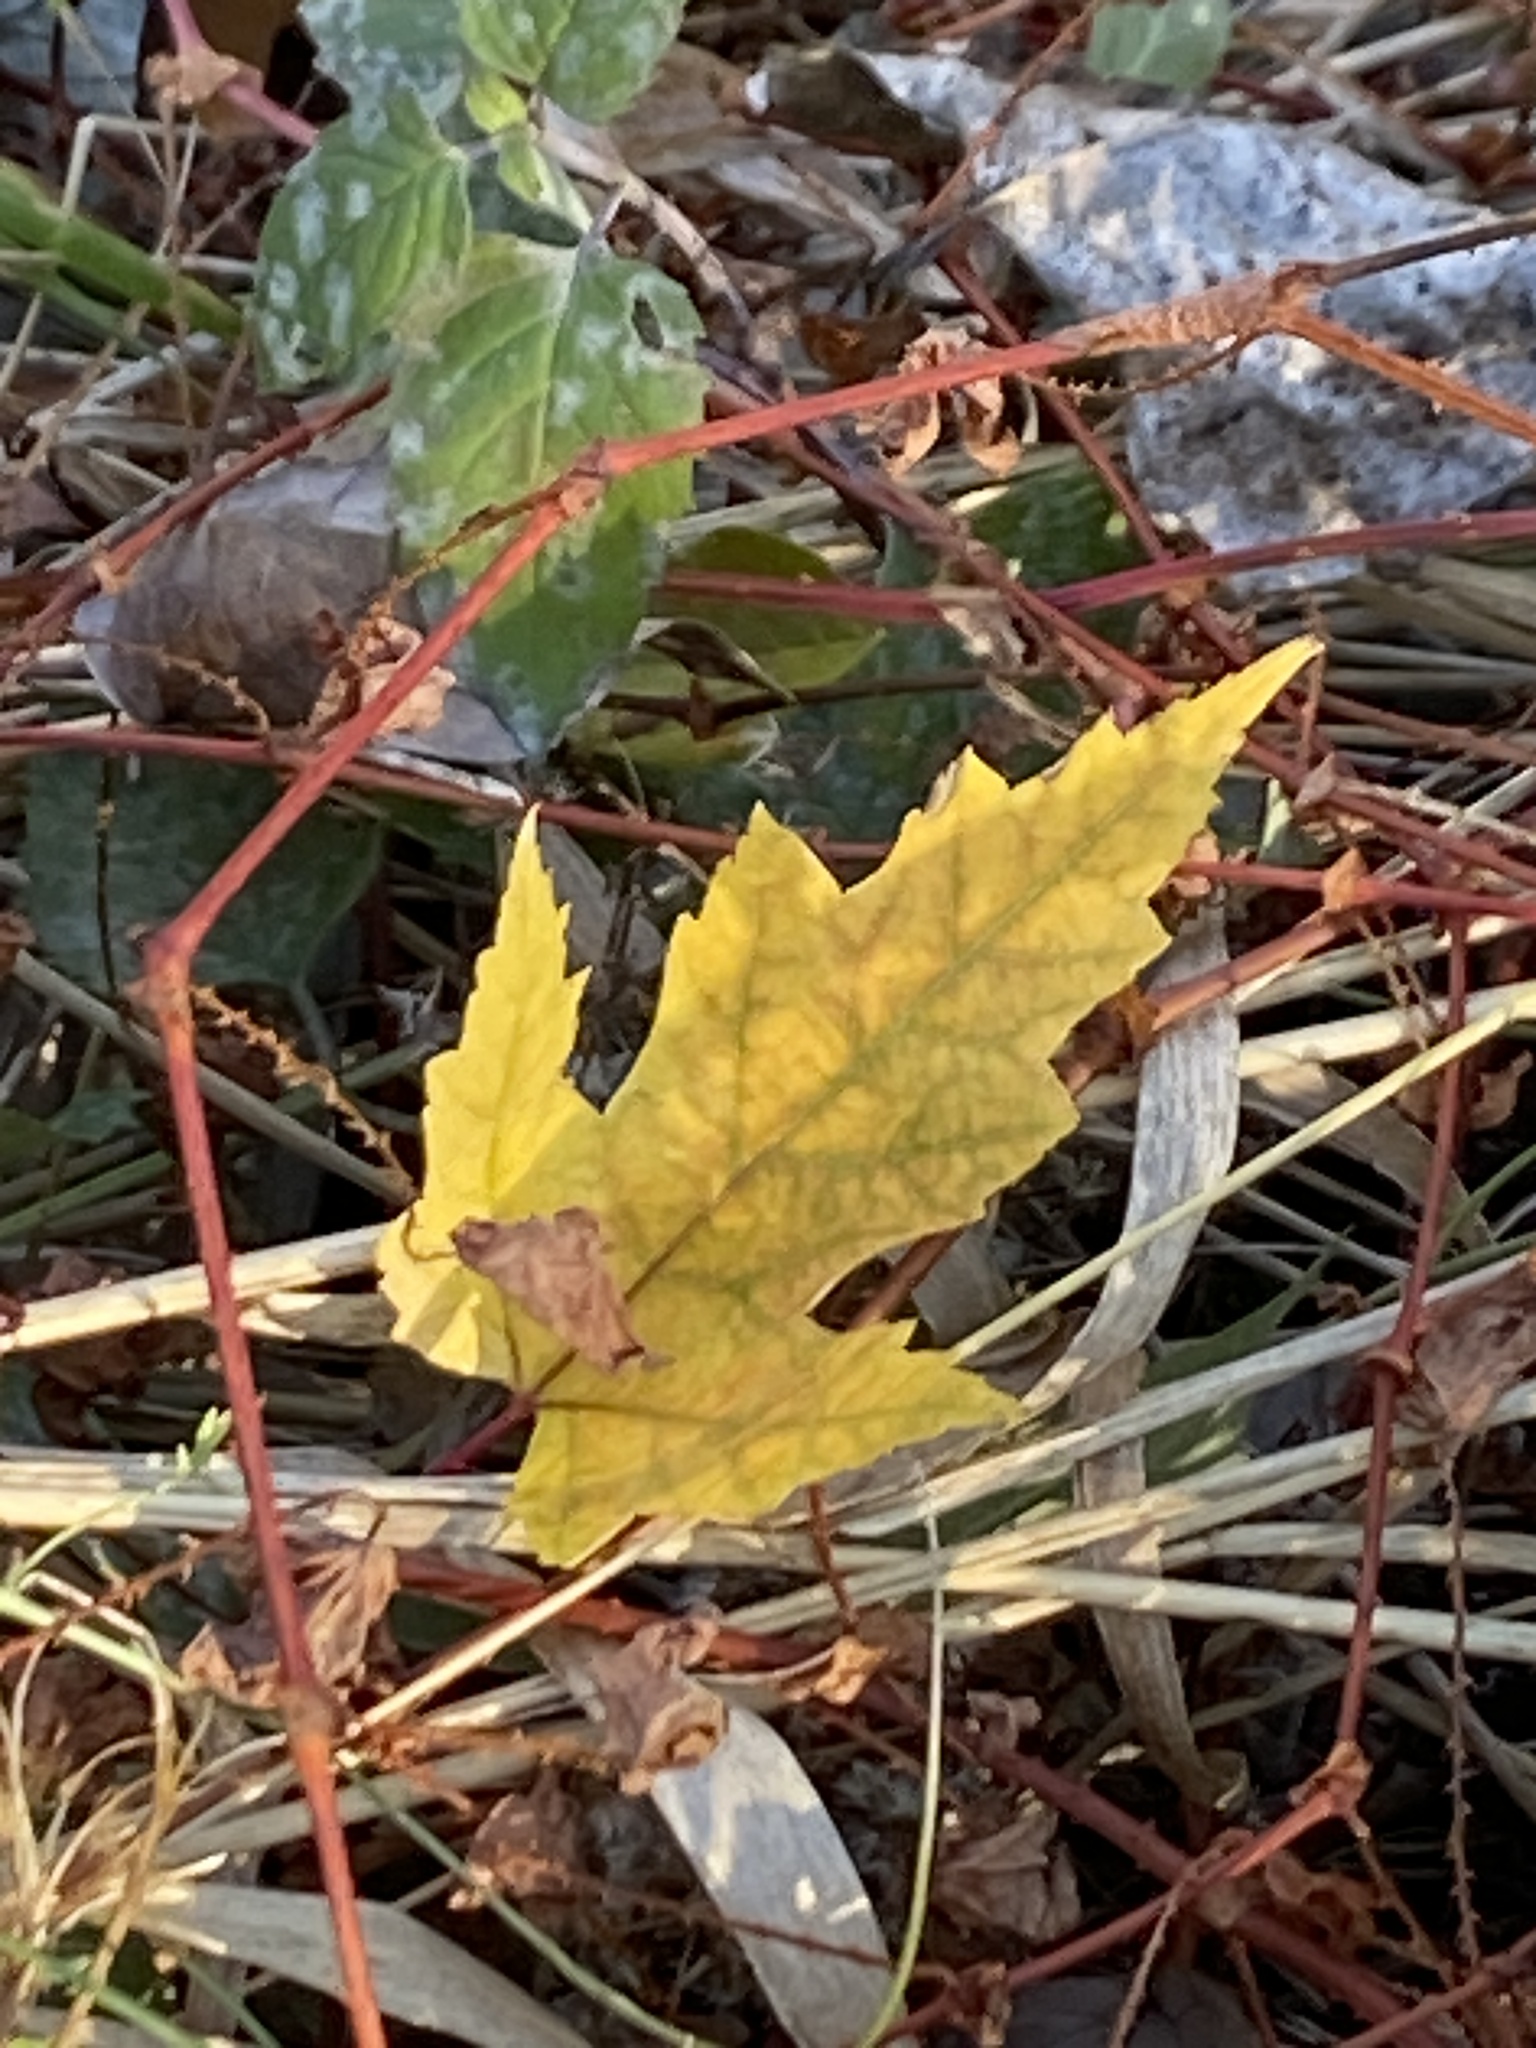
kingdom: Plantae
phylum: Tracheophyta
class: Magnoliopsida
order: Sapindales
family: Sapindaceae
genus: Acer
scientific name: Acer saccharinum
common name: Silver maple
